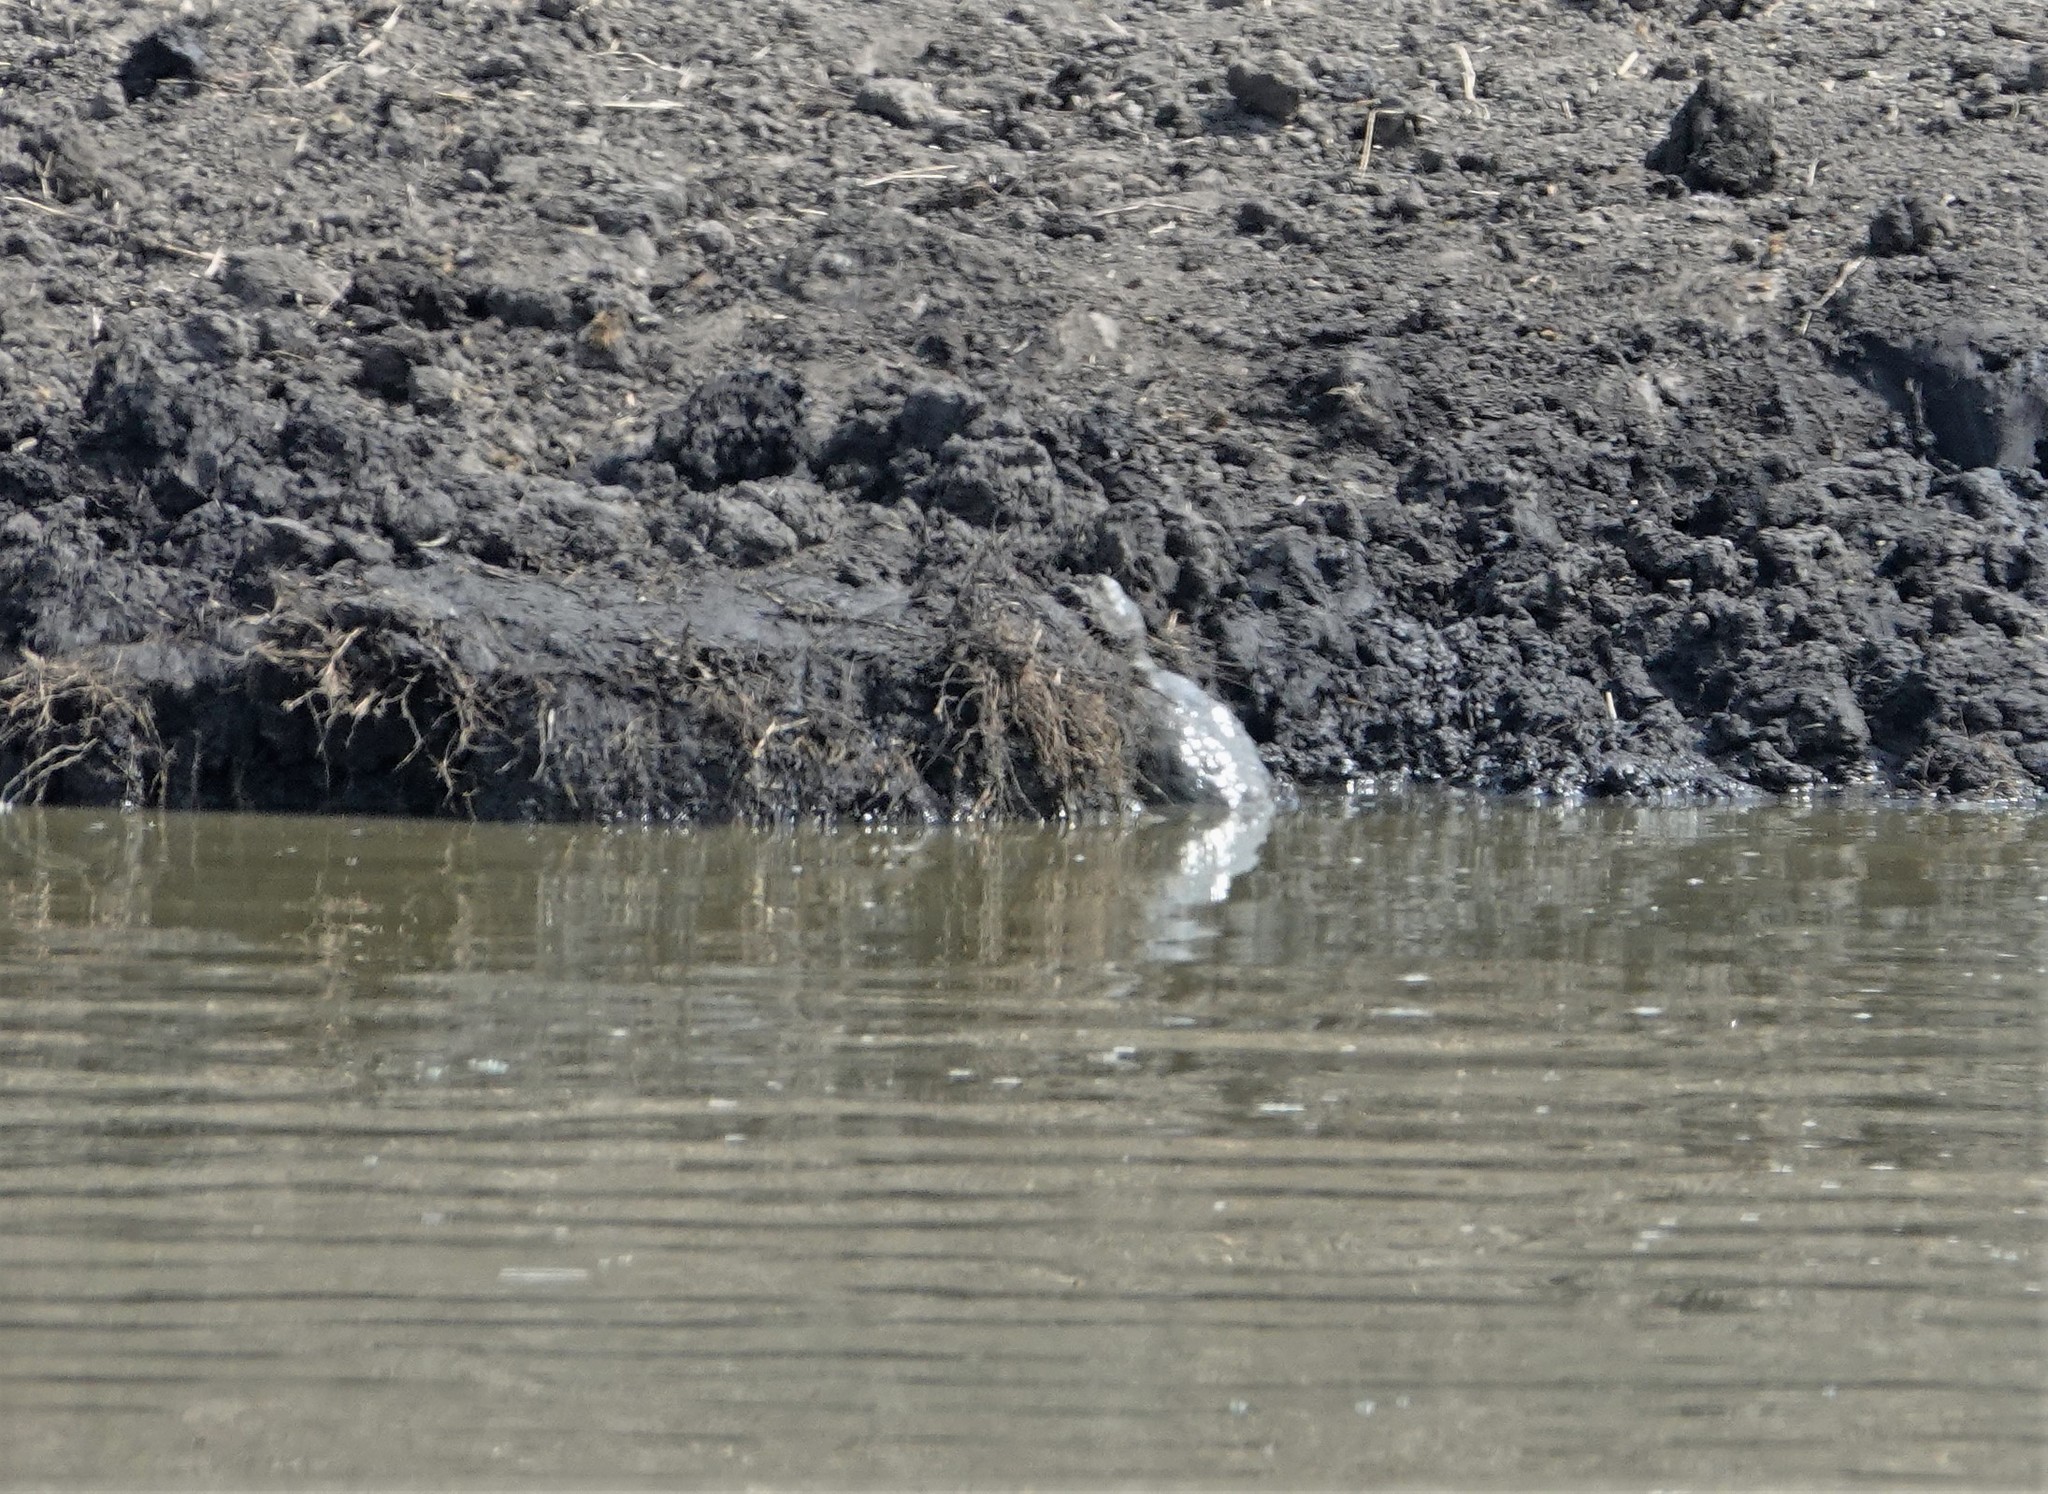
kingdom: Animalia
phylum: Chordata
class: Testudines
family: Pelomedusidae
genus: Pelomedusa
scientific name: Pelomedusa neumanni
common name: Neumann’s marsh terrapin
